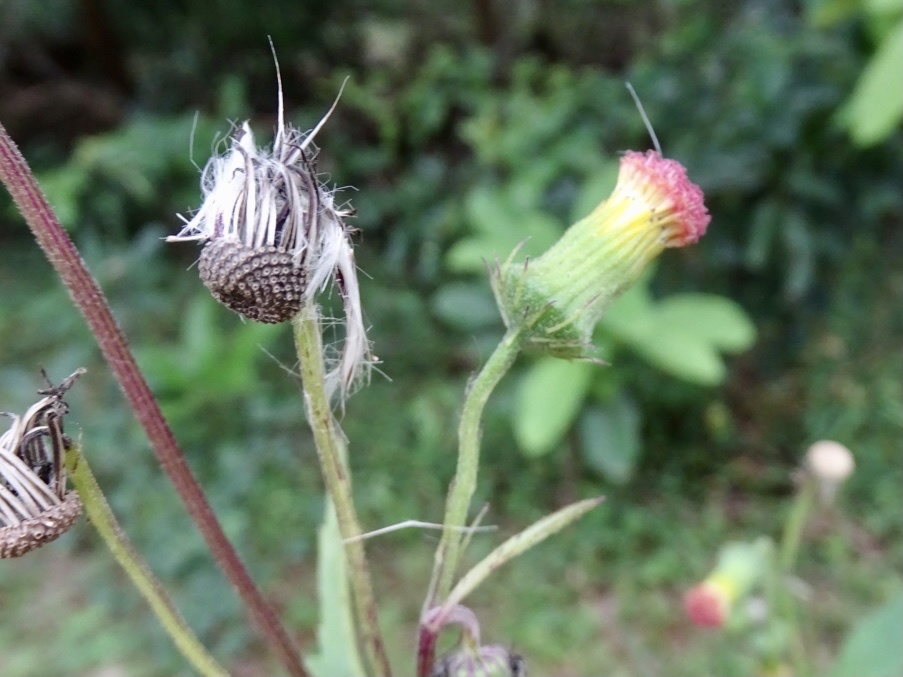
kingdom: Plantae
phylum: Tracheophyta
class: Magnoliopsida
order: Asterales
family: Asteraceae
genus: Crassocephalum
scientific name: Crassocephalum crepidioides
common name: Redflower ragleaf
